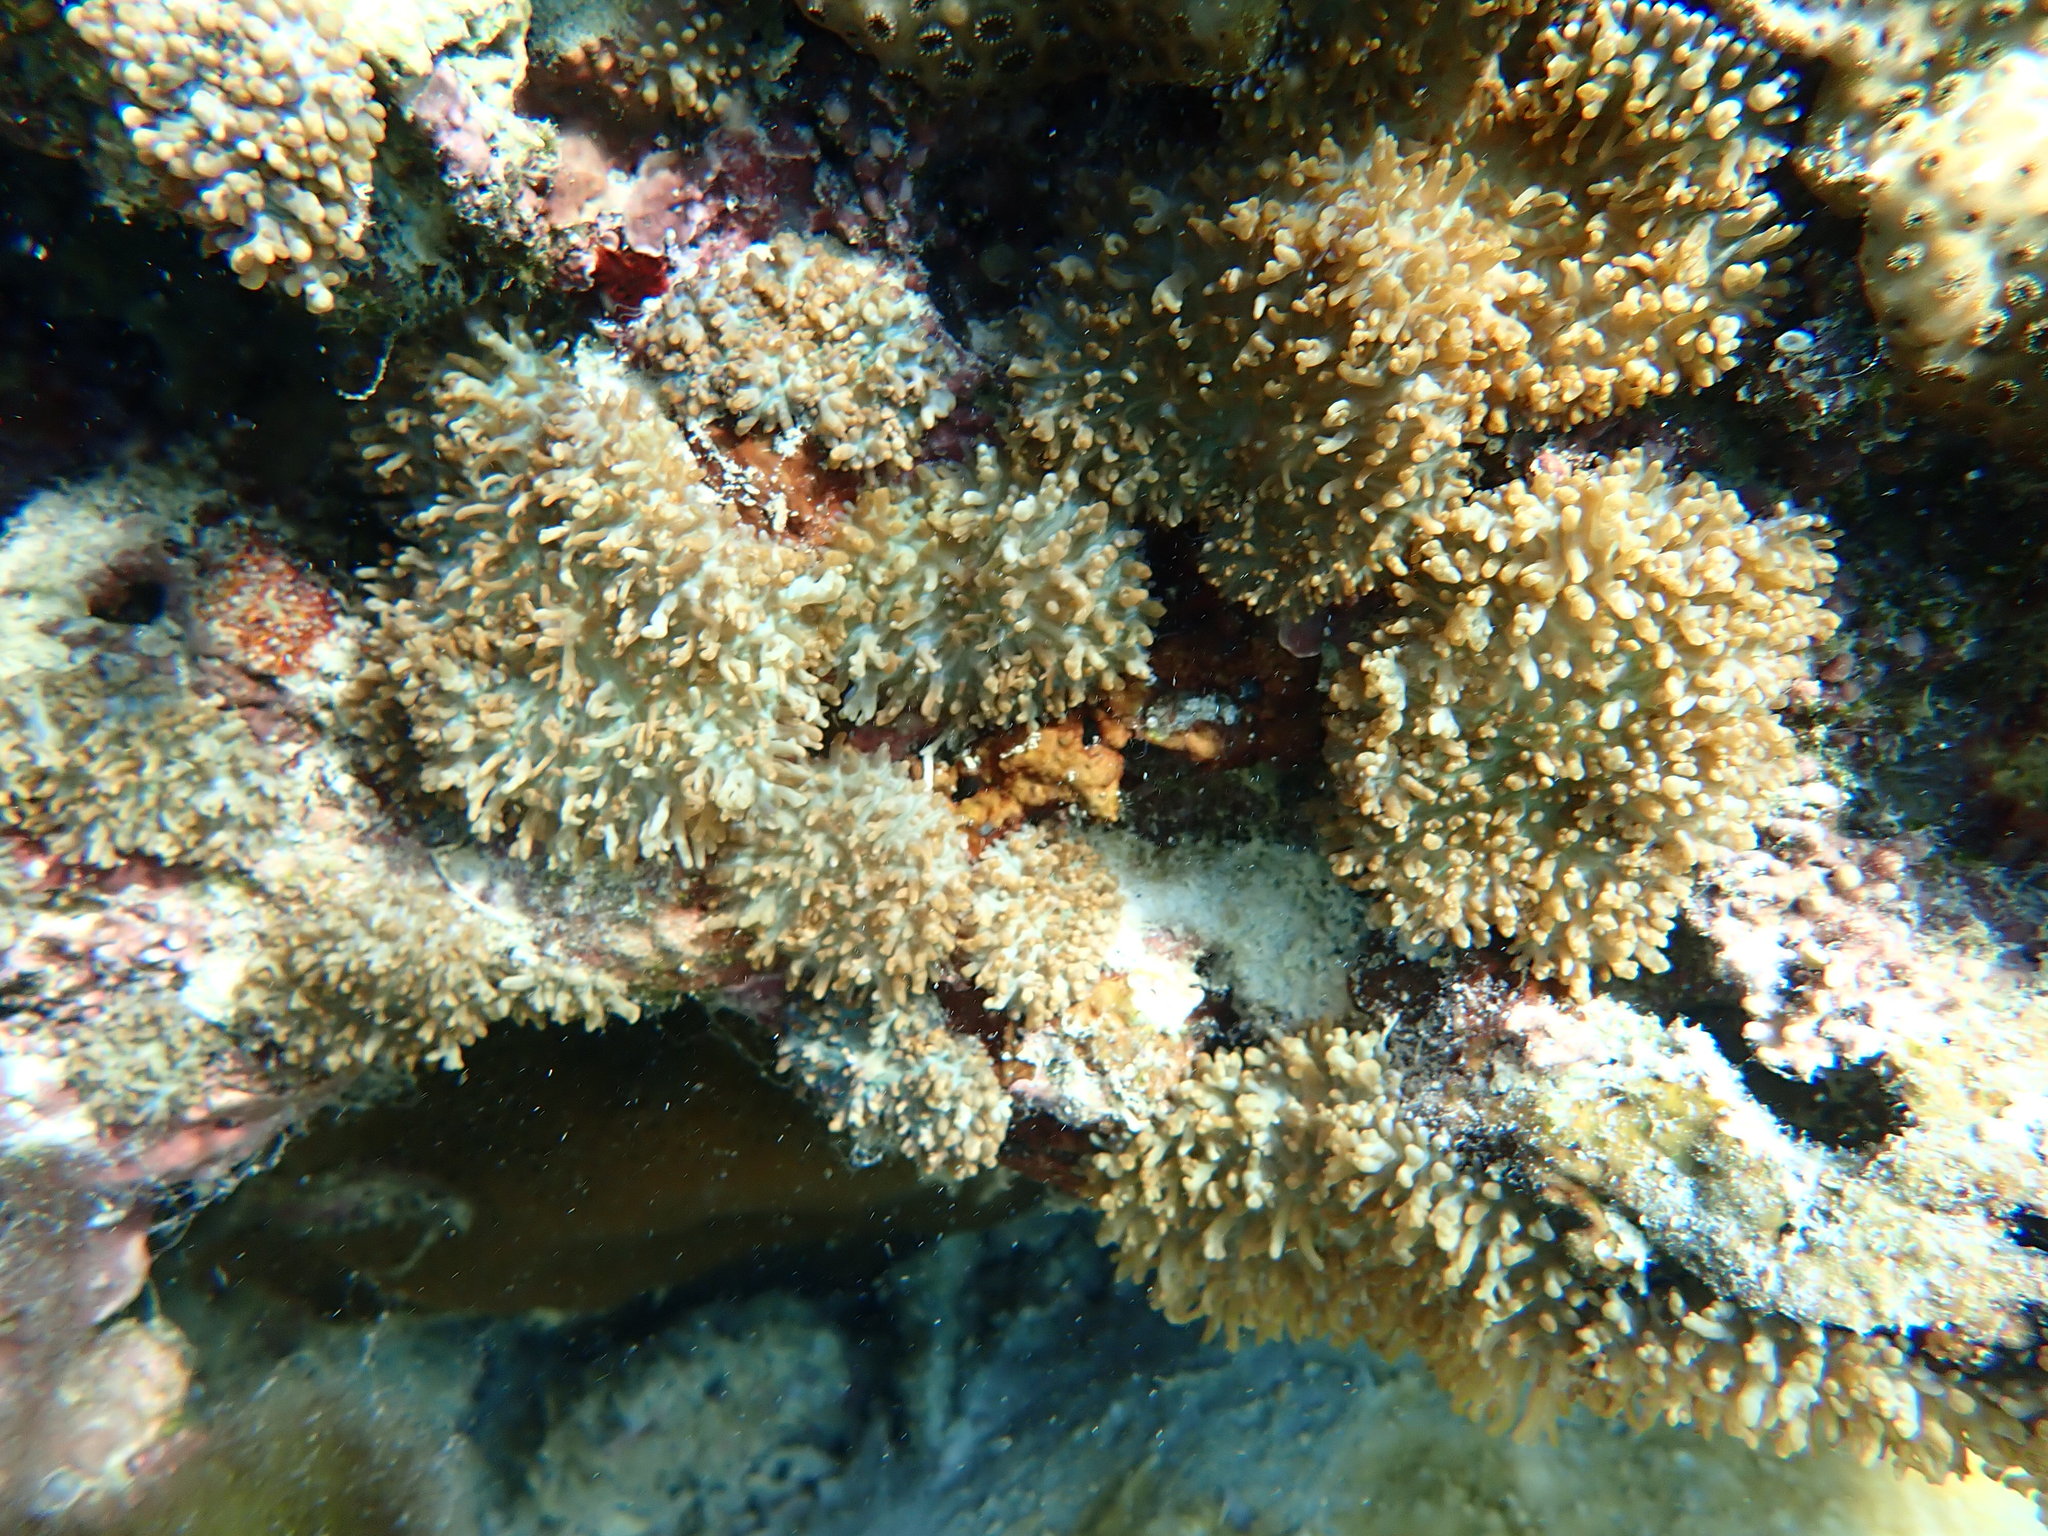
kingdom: Animalia
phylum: Cnidaria
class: Anthozoa
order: Corallimorpharia
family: Discosomidae
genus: Rhodactis
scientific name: Rhodactis rhodostoma
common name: Red-mouth mushroom anemone
